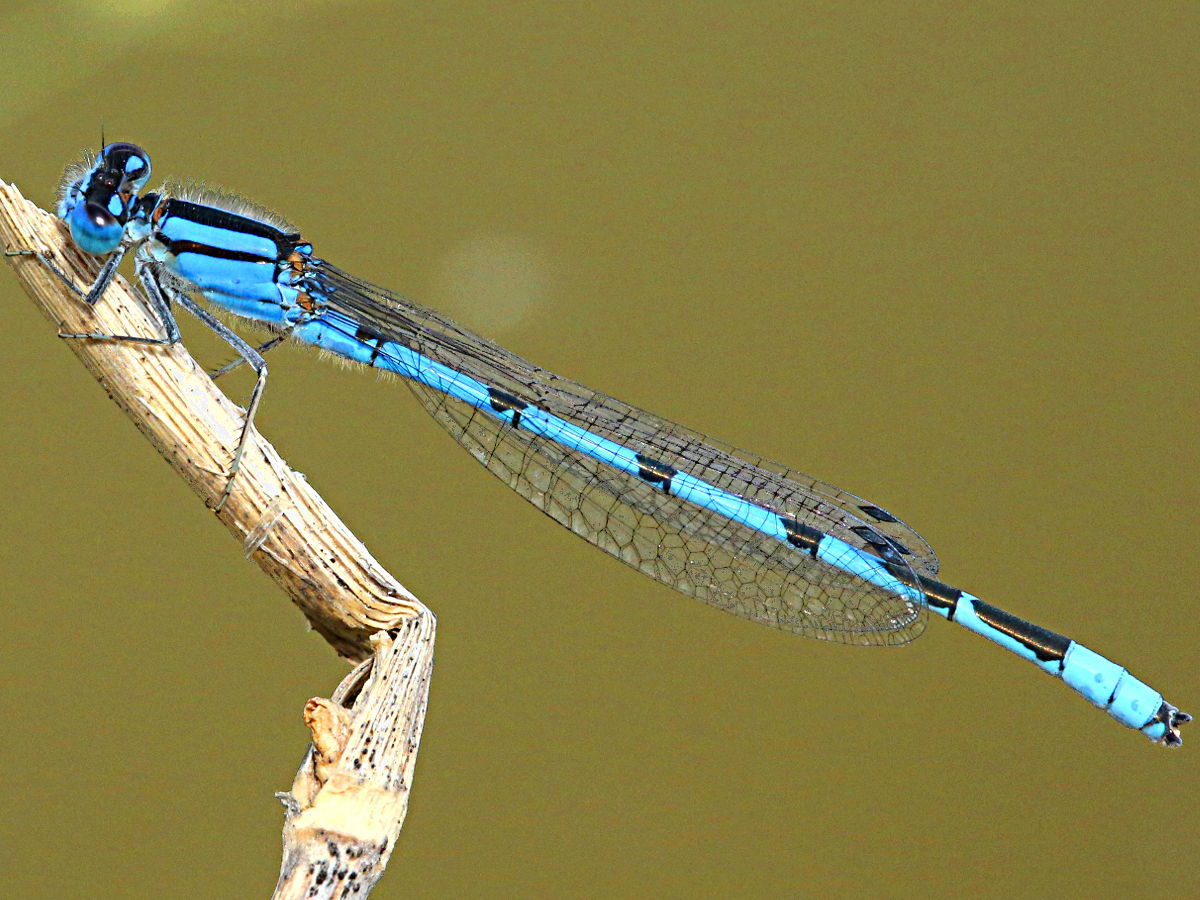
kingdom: Animalia
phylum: Arthropoda
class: Insecta
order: Odonata
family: Coenagrionidae
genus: Enallagma
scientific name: Enallagma civile
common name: Damselfly
